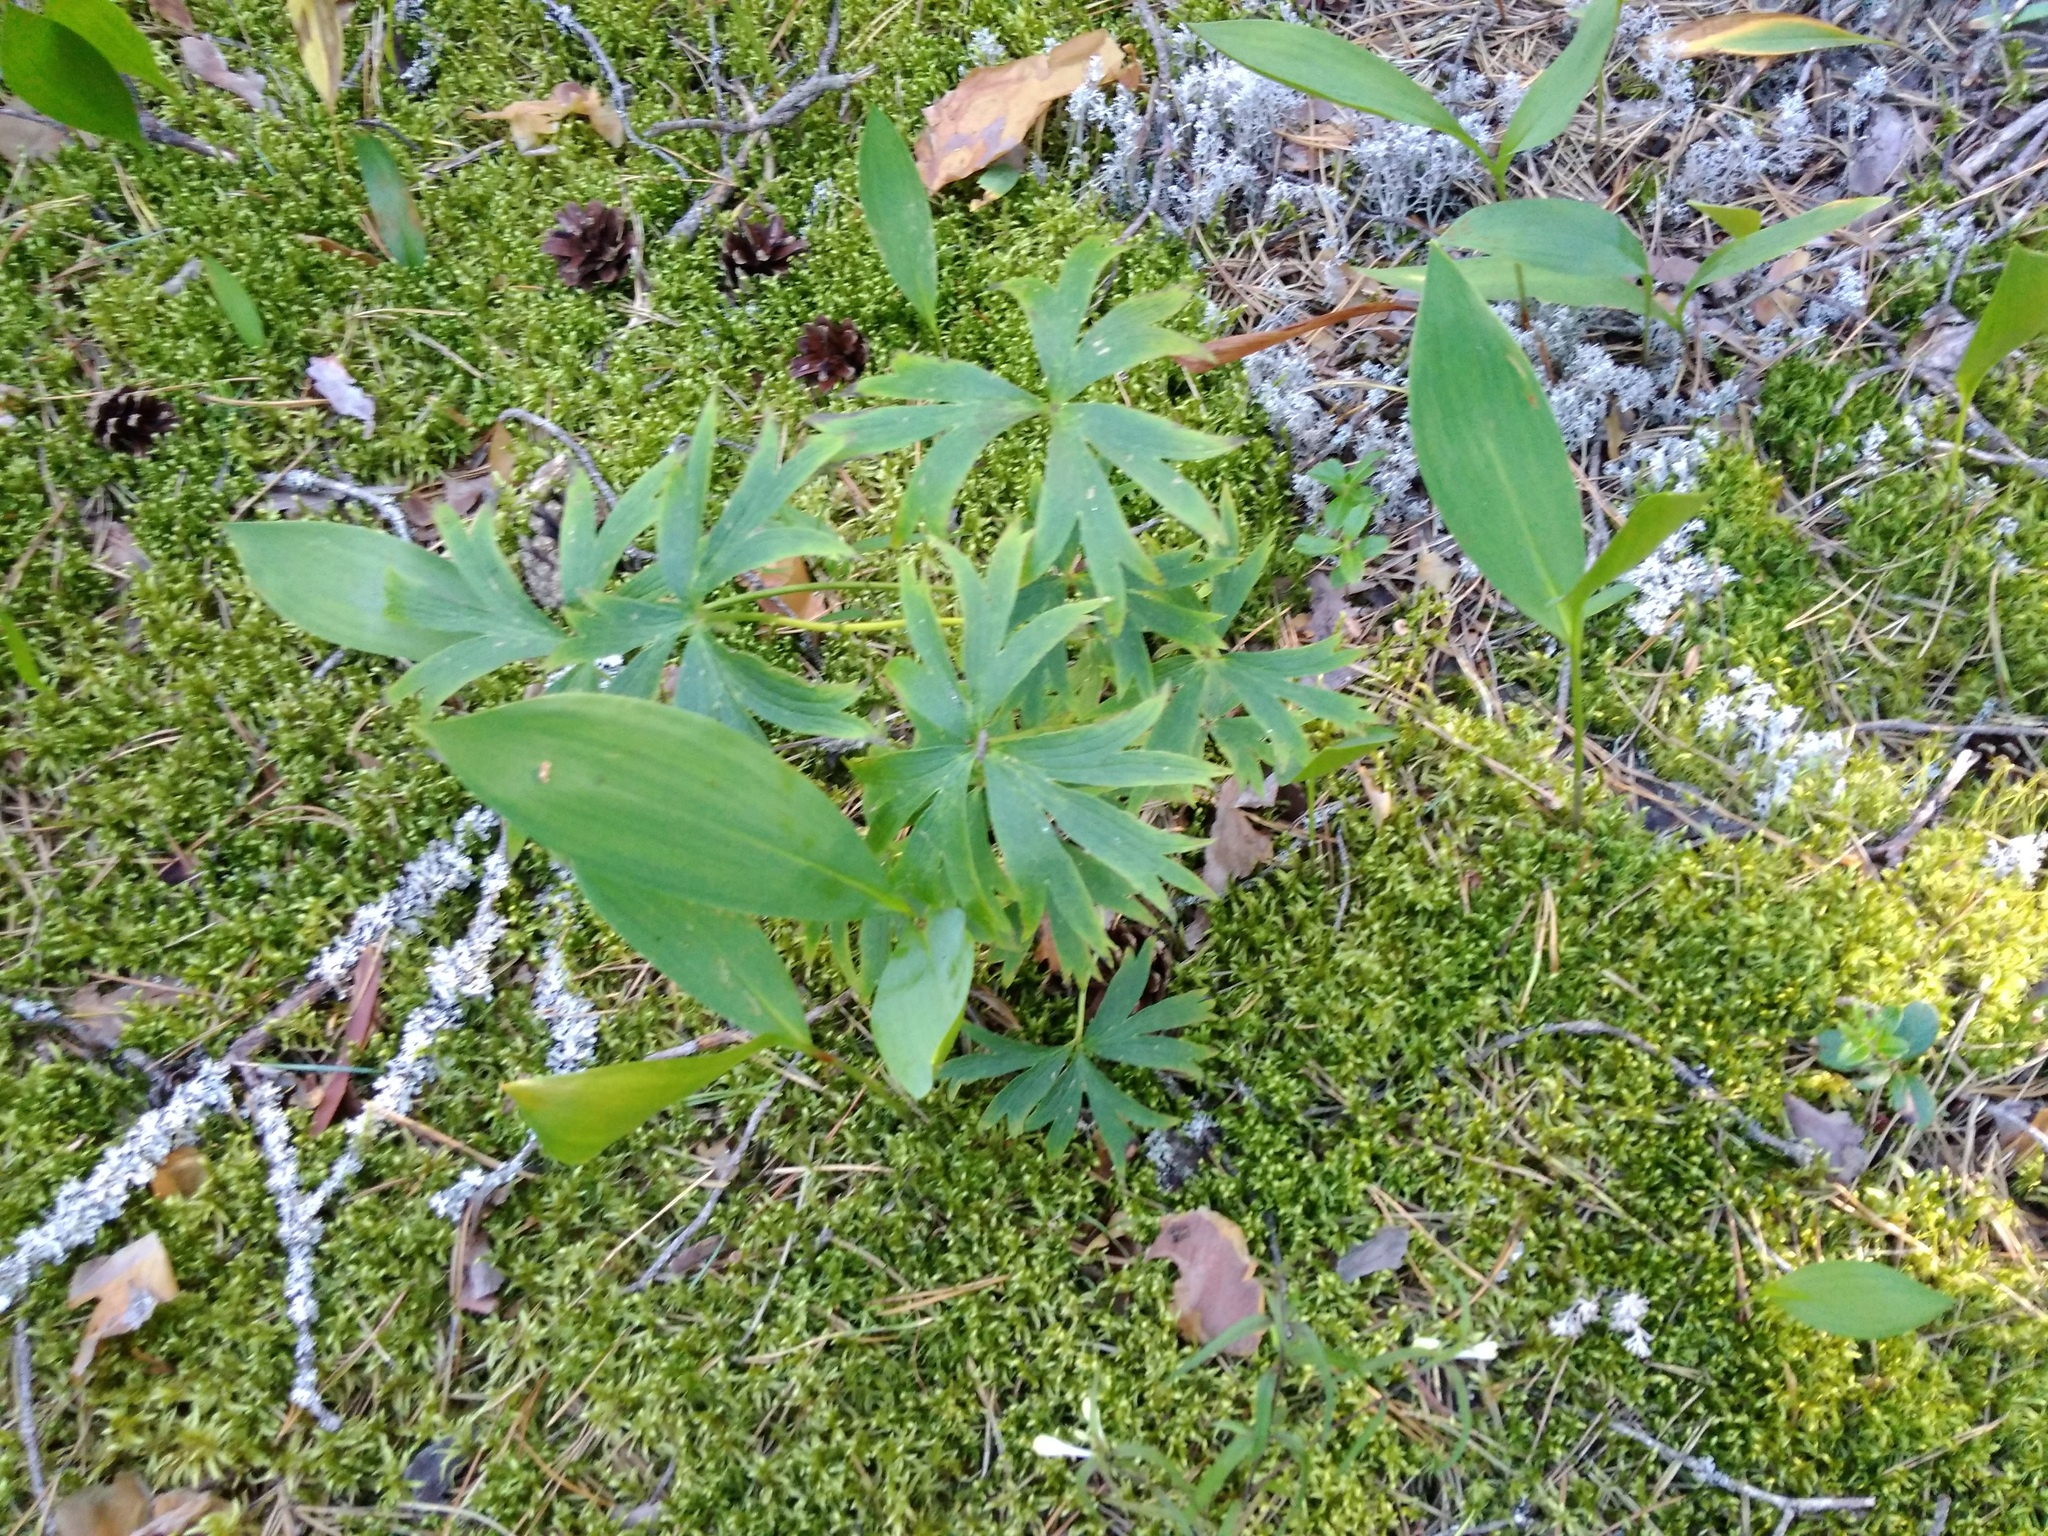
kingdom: Plantae
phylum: Tracheophyta
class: Magnoliopsida
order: Ranunculales
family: Ranunculaceae
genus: Pulsatilla
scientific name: Pulsatilla patens
